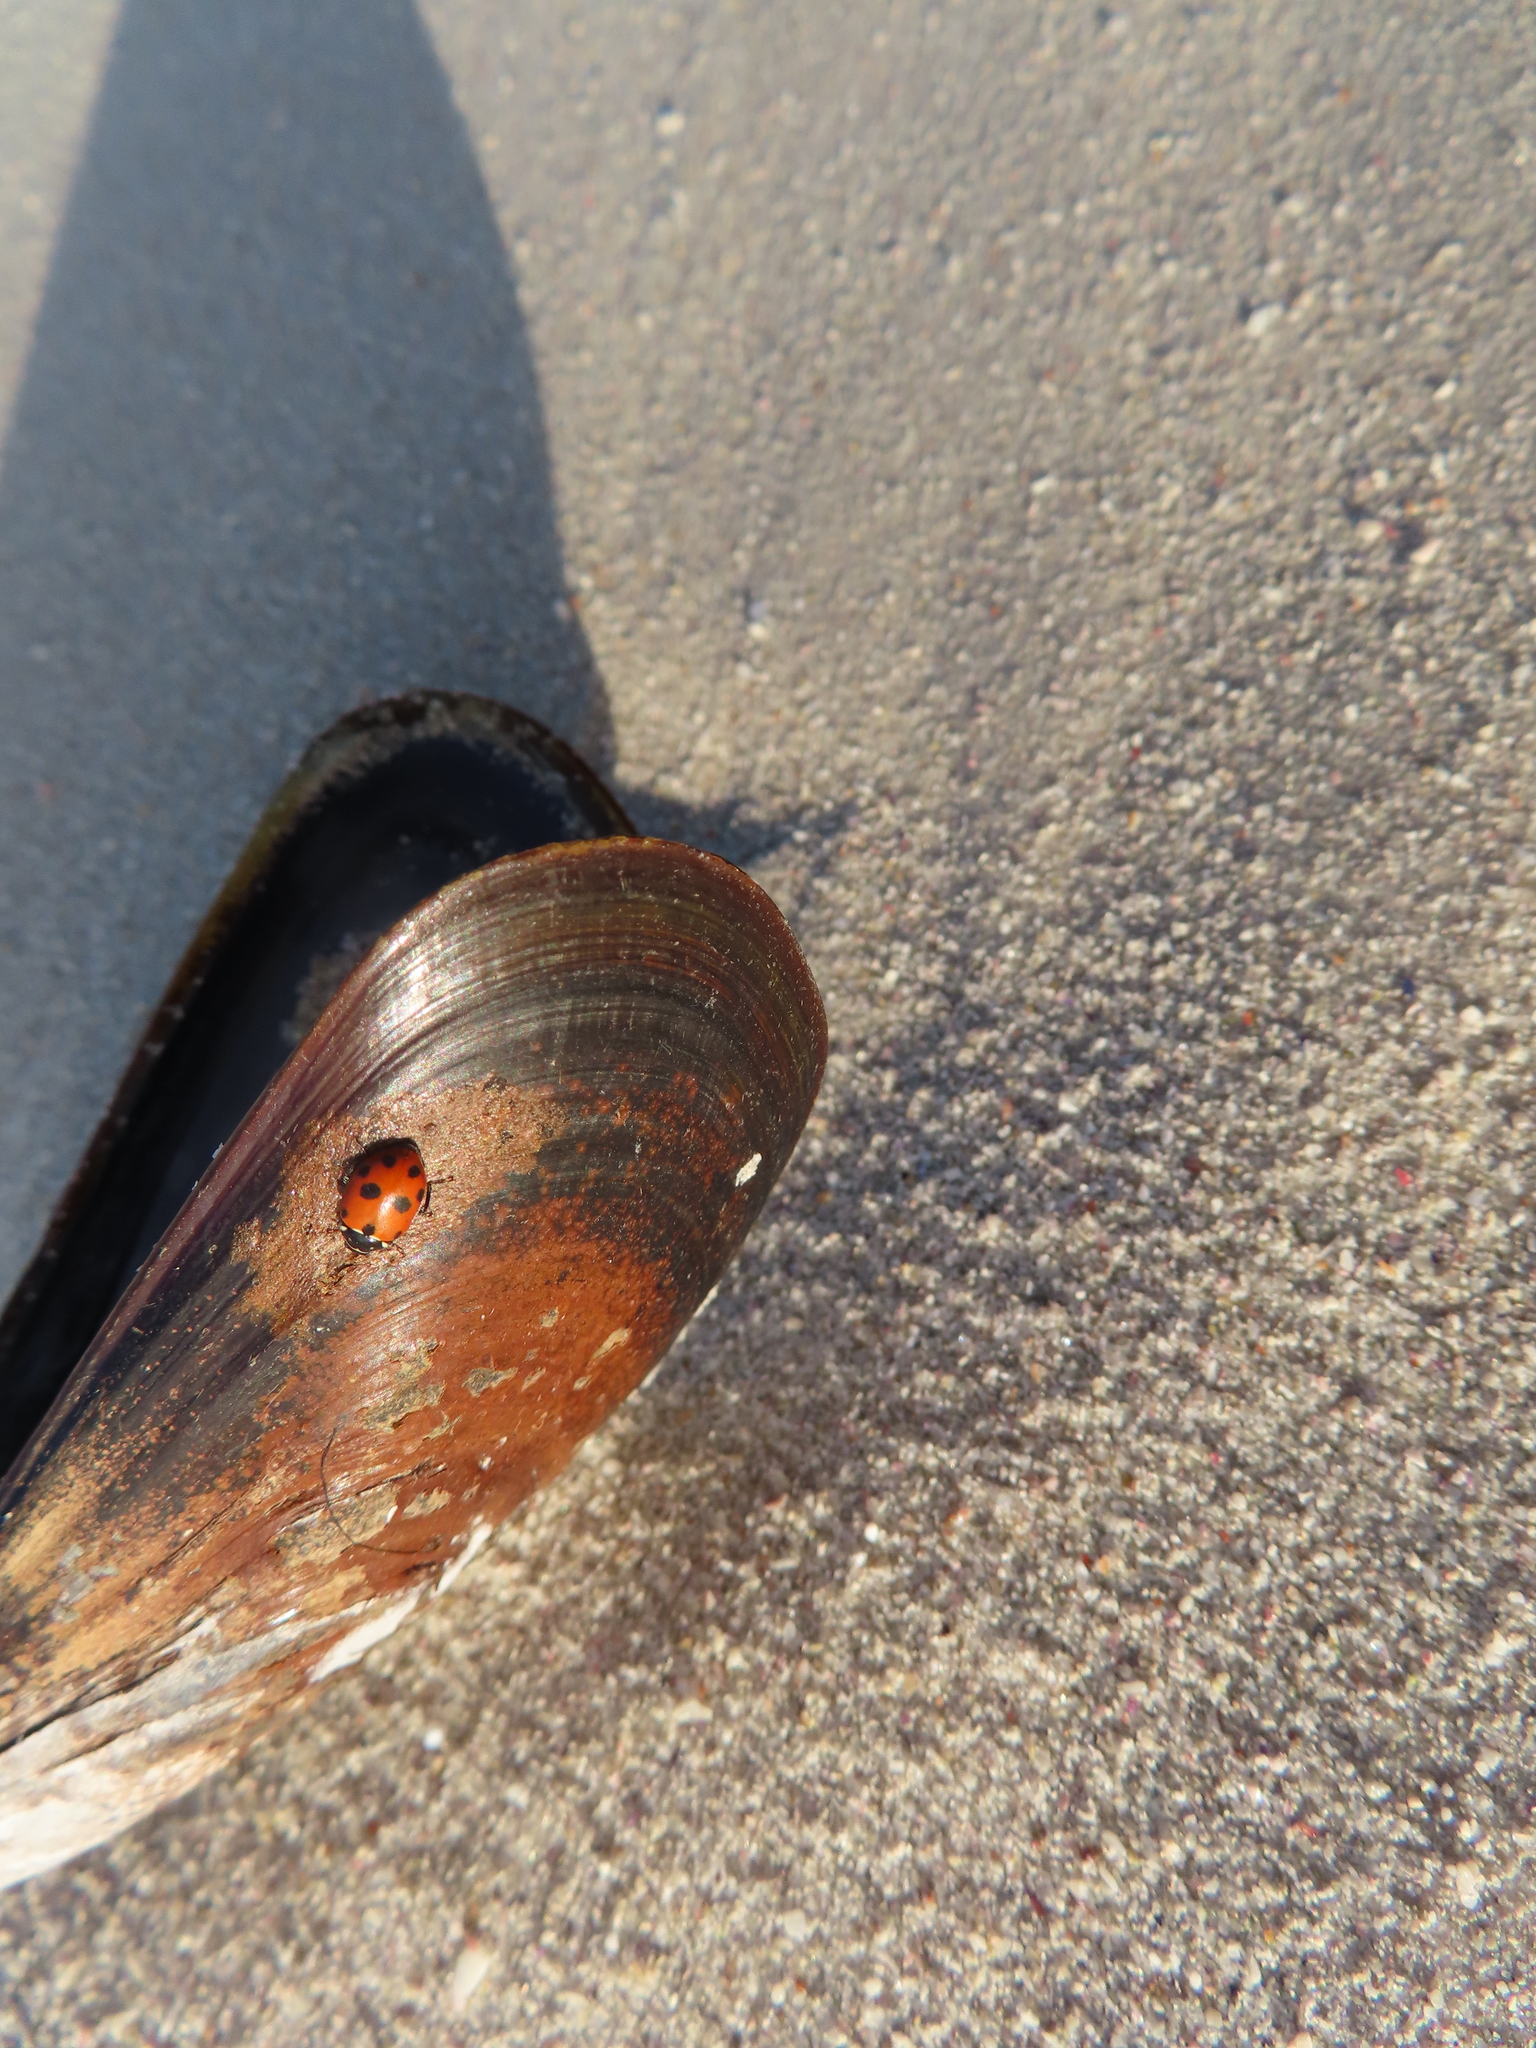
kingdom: Animalia
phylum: Arthropoda
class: Insecta
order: Coleoptera
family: Coccinellidae
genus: Hippodamia
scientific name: Hippodamia variegata
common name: Ladybird beetle
